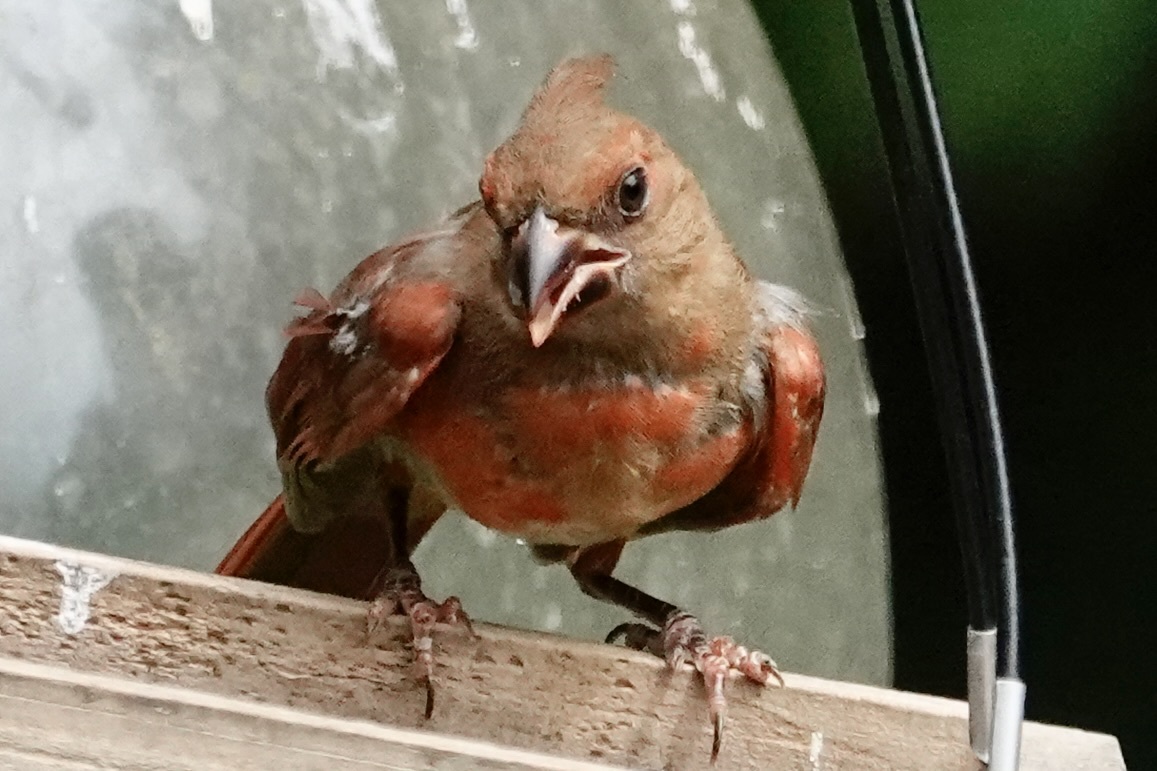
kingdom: Animalia
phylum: Chordata
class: Aves
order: Passeriformes
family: Cardinalidae
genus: Cardinalis
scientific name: Cardinalis cardinalis
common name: Northern cardinal
